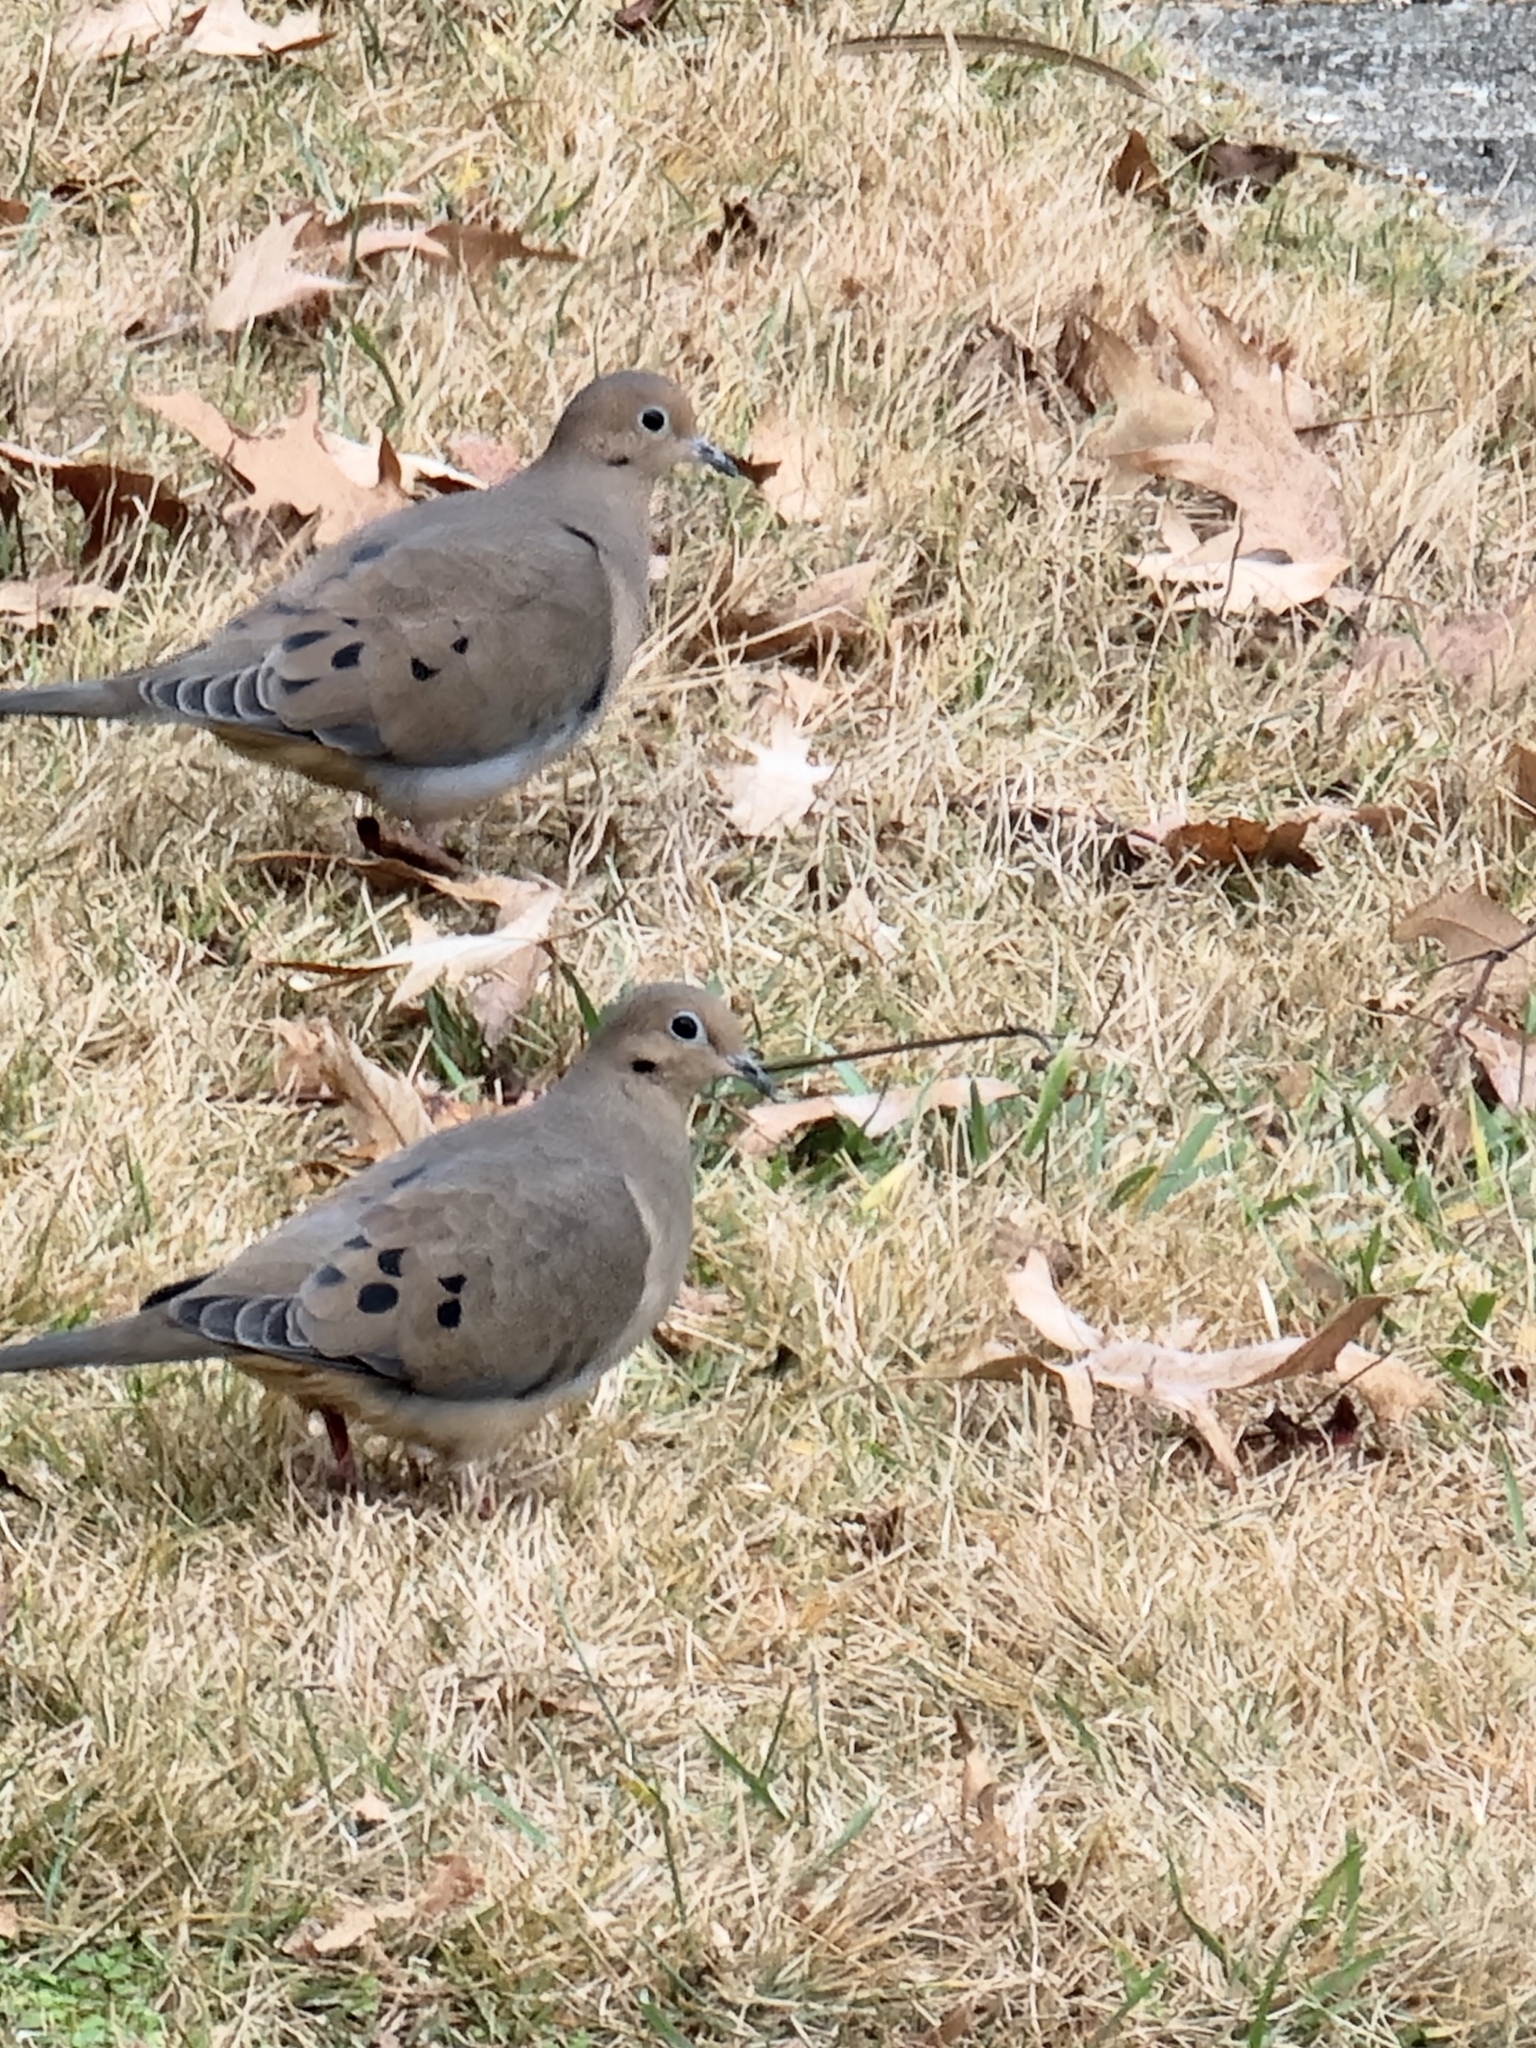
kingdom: Animalia
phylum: Chordata
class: Aves
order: Columbiformes
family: Columbidae
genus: Zenaida
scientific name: Zenaida macroura
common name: Mourning dove
